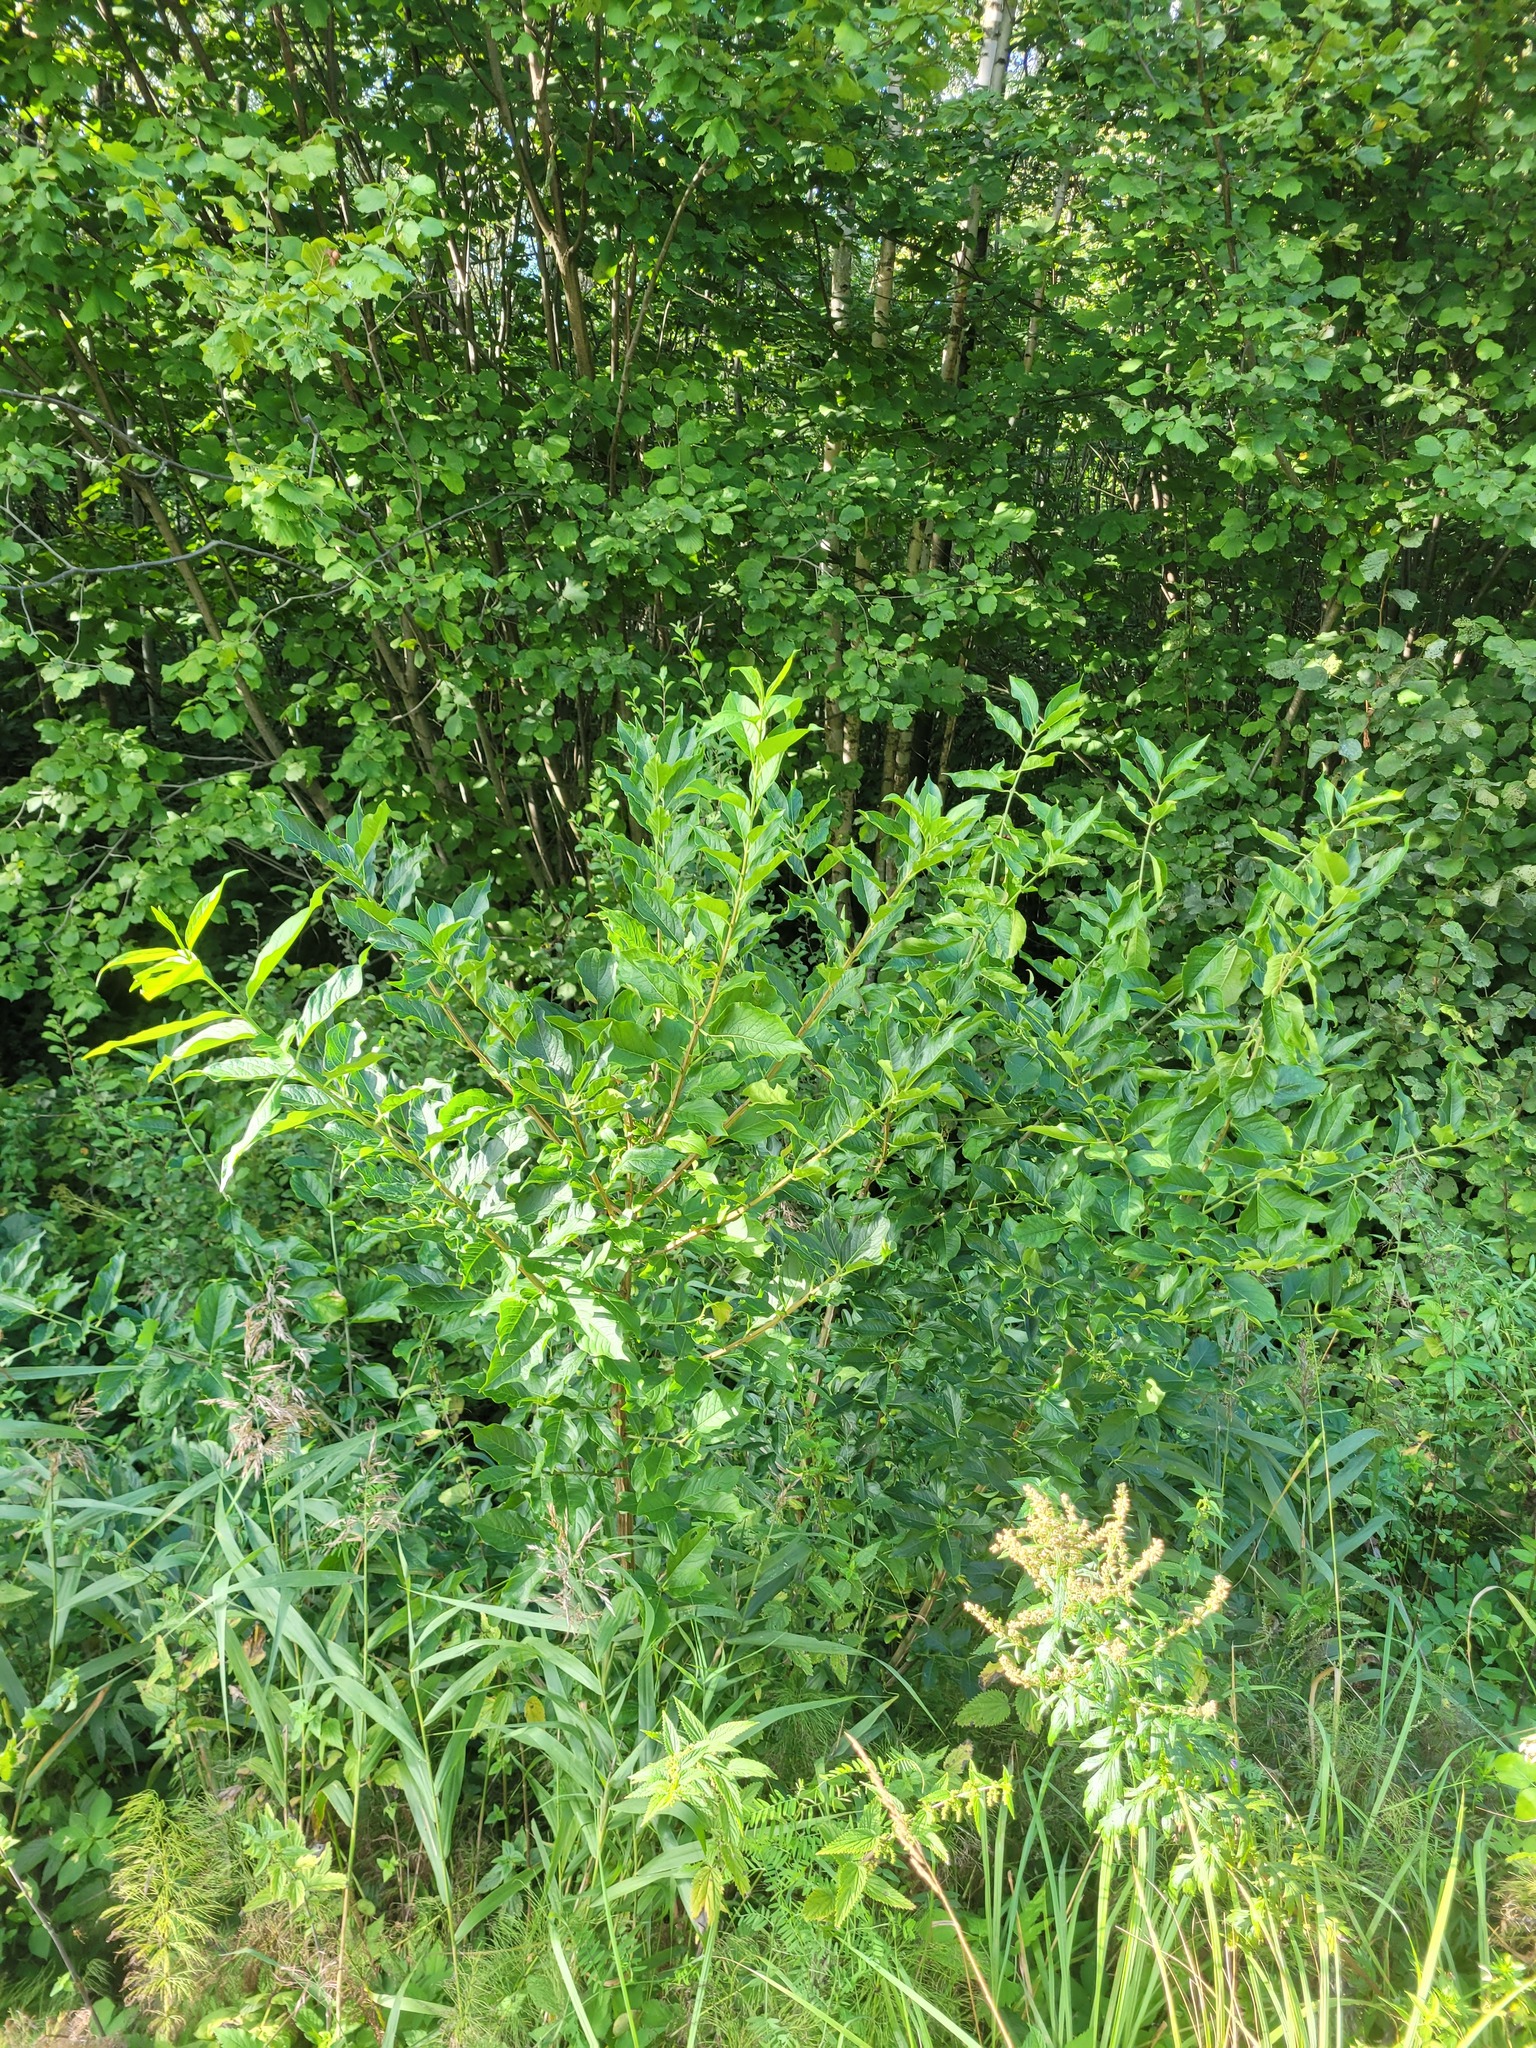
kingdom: Plantae
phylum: Tracheophyta
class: Magnoliopsida
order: Celastrales
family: Celastraceae
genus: Euonymus
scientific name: Euonymus europaeus
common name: Spindle
